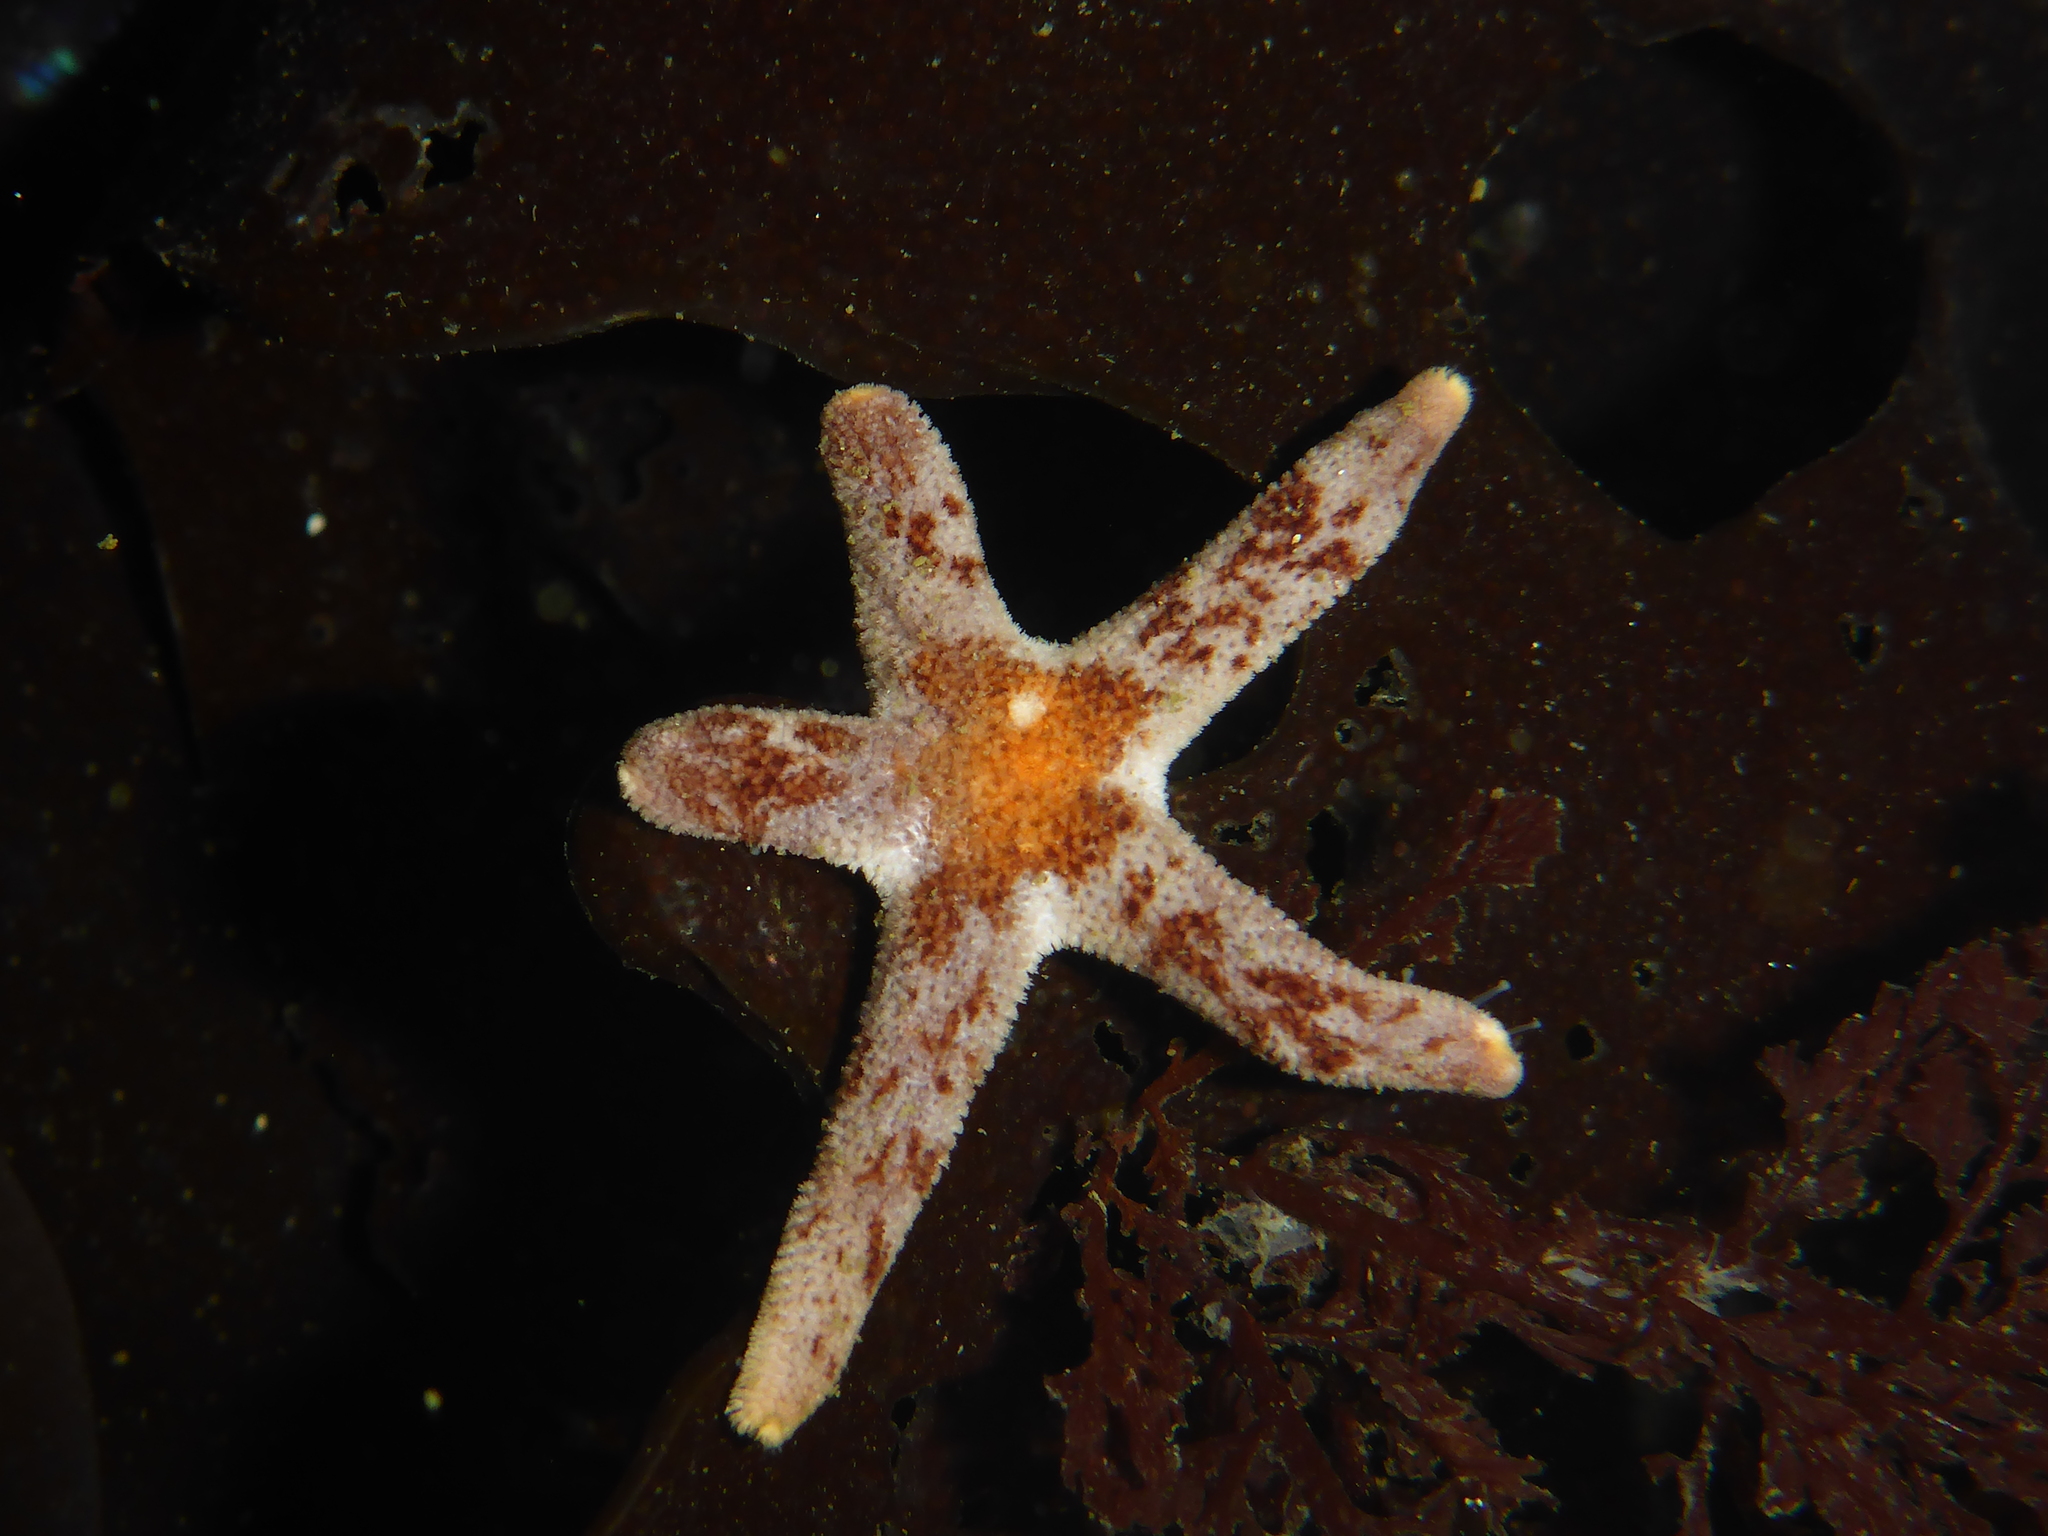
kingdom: Animalia
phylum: Echinodermata
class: Asteroidea
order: Spinulosida
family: Echinasteridae
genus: Henricia
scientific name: Henricia pumila
